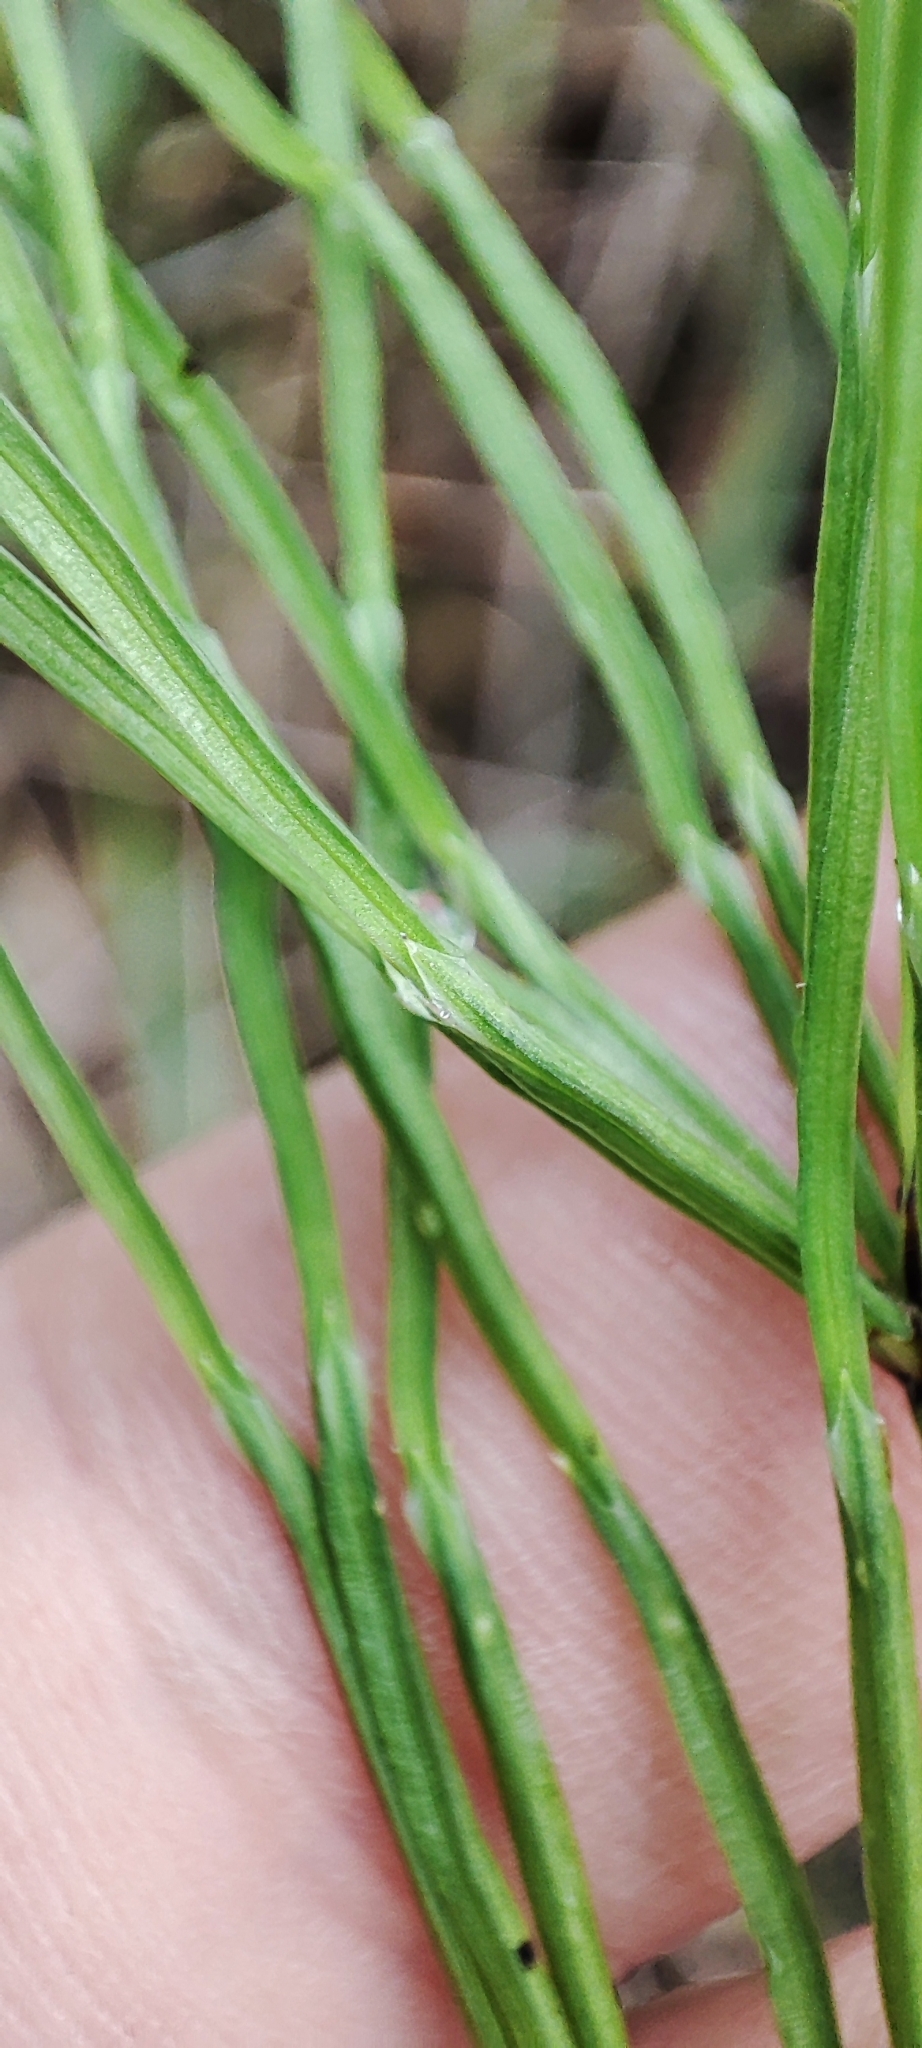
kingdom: Plantae
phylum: Tracheophyta
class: Polypodiopsida
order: Equisetales
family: Equisetaceae
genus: Equisetum
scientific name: Equisetum arvense
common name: Field horsetail
